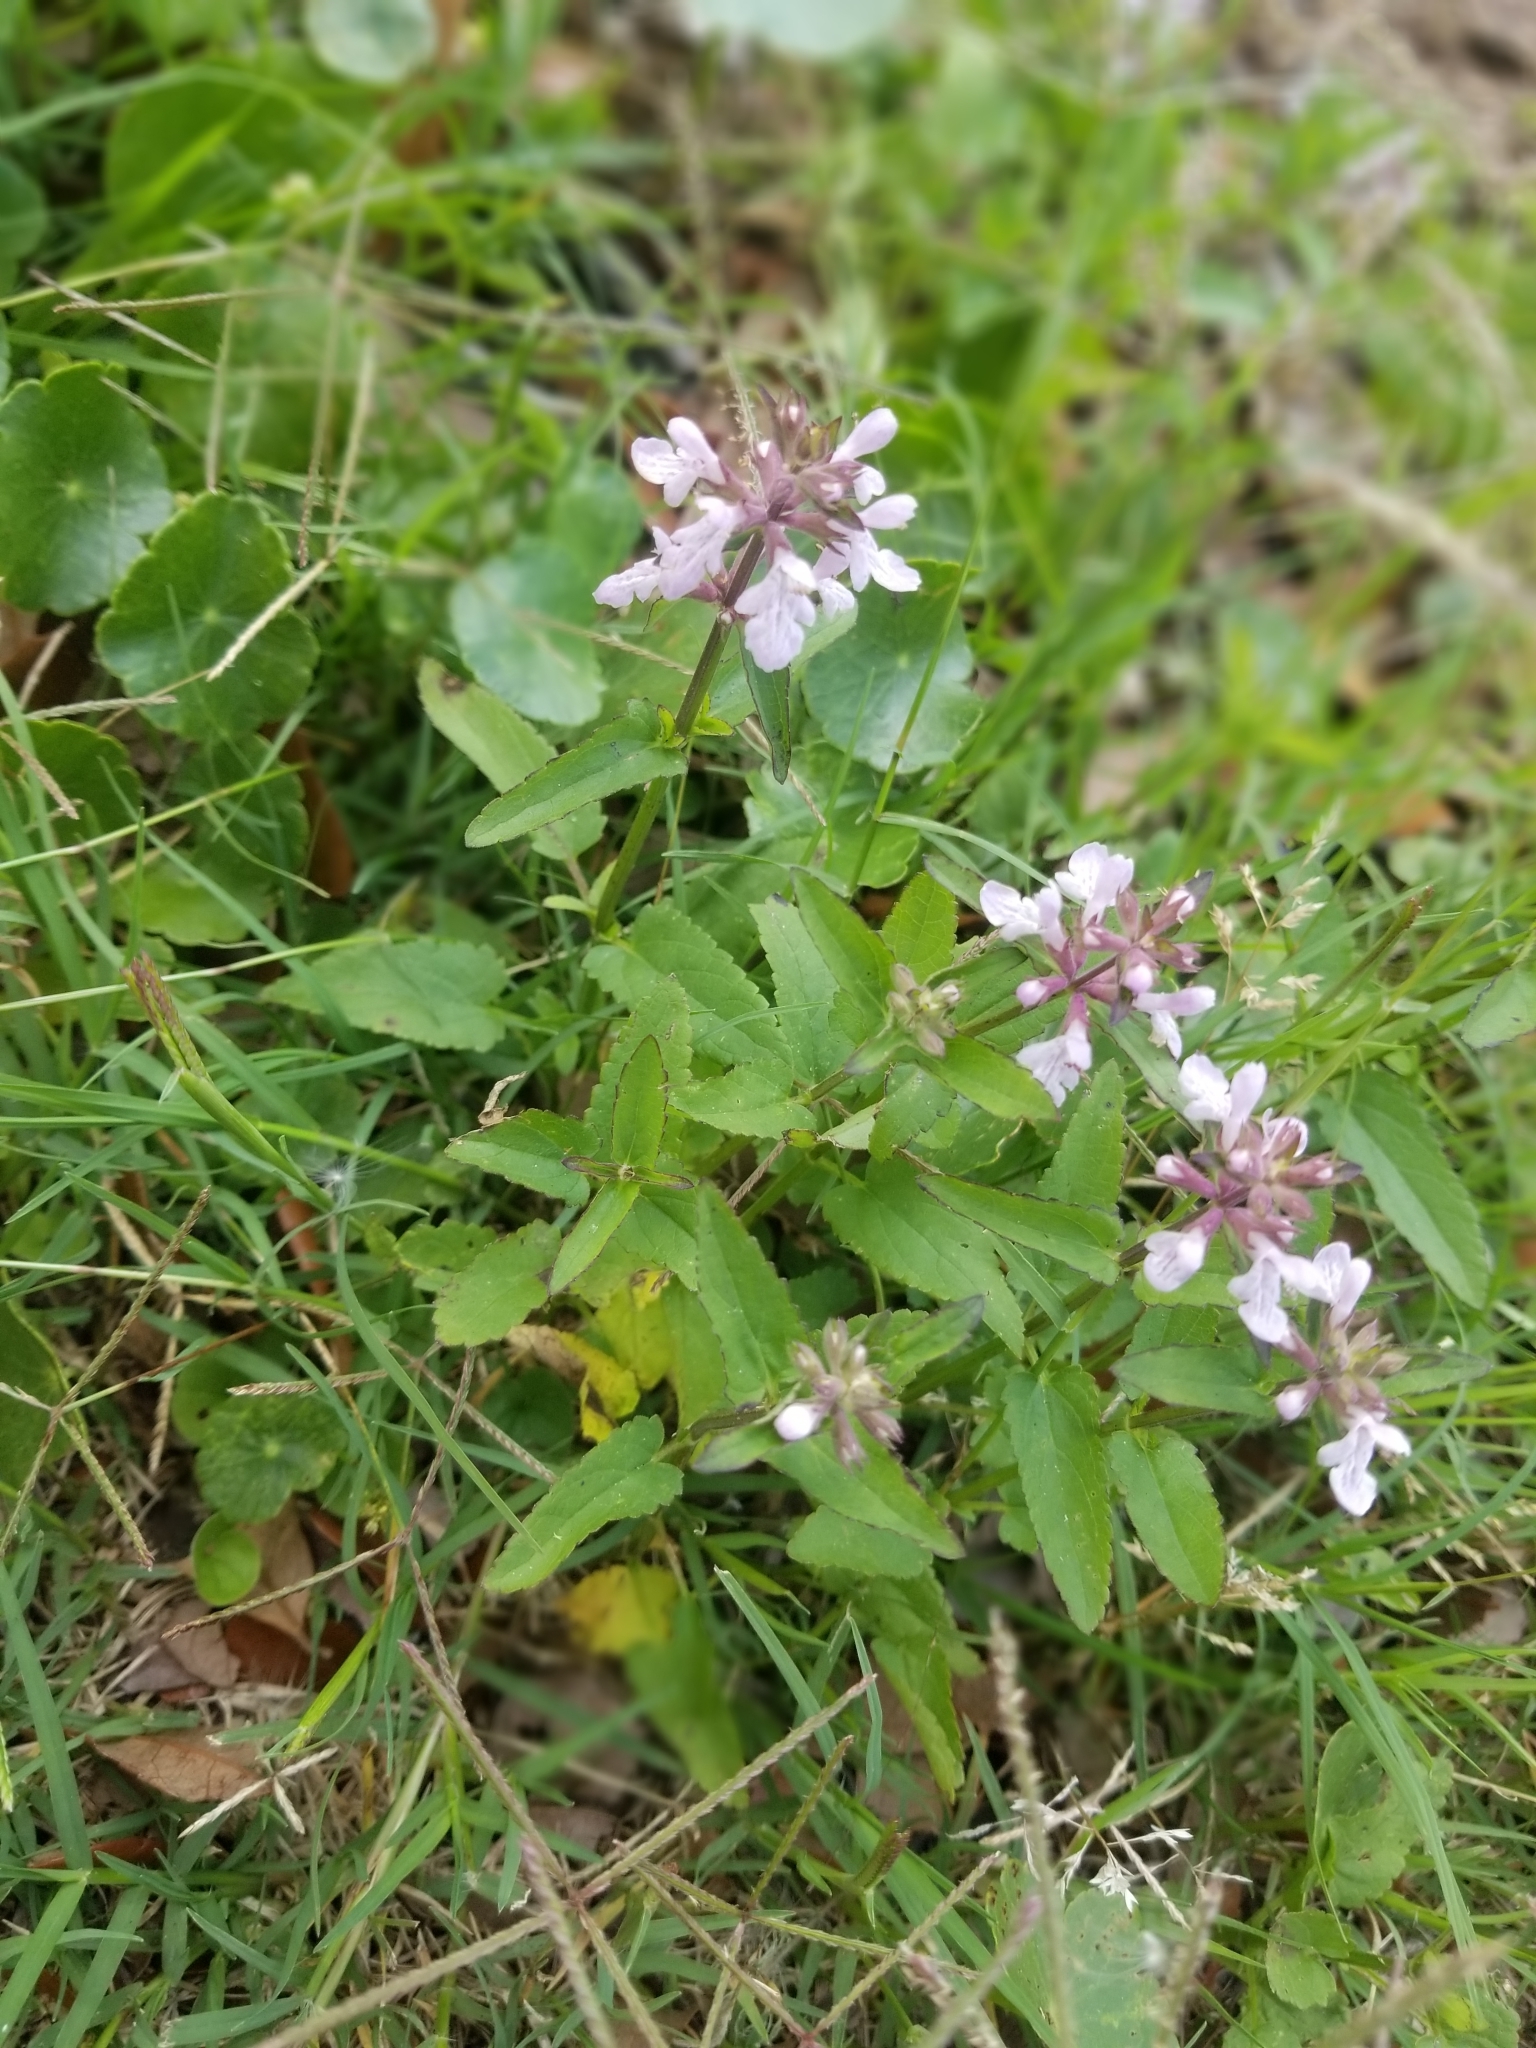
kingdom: Plantae
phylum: Tracheophyta
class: Magnoliopsida
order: Lamiales
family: Lamiaceae
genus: Stachys
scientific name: Stachys floridana
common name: Florida betony
